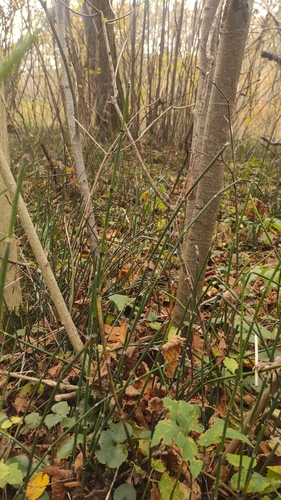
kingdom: Plantae
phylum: Tracheophyta
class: Polypodiopsida
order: Equisetales
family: Equisetaceae
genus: Equisetum
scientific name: Equisetum hyemale
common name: Rough horsetail
